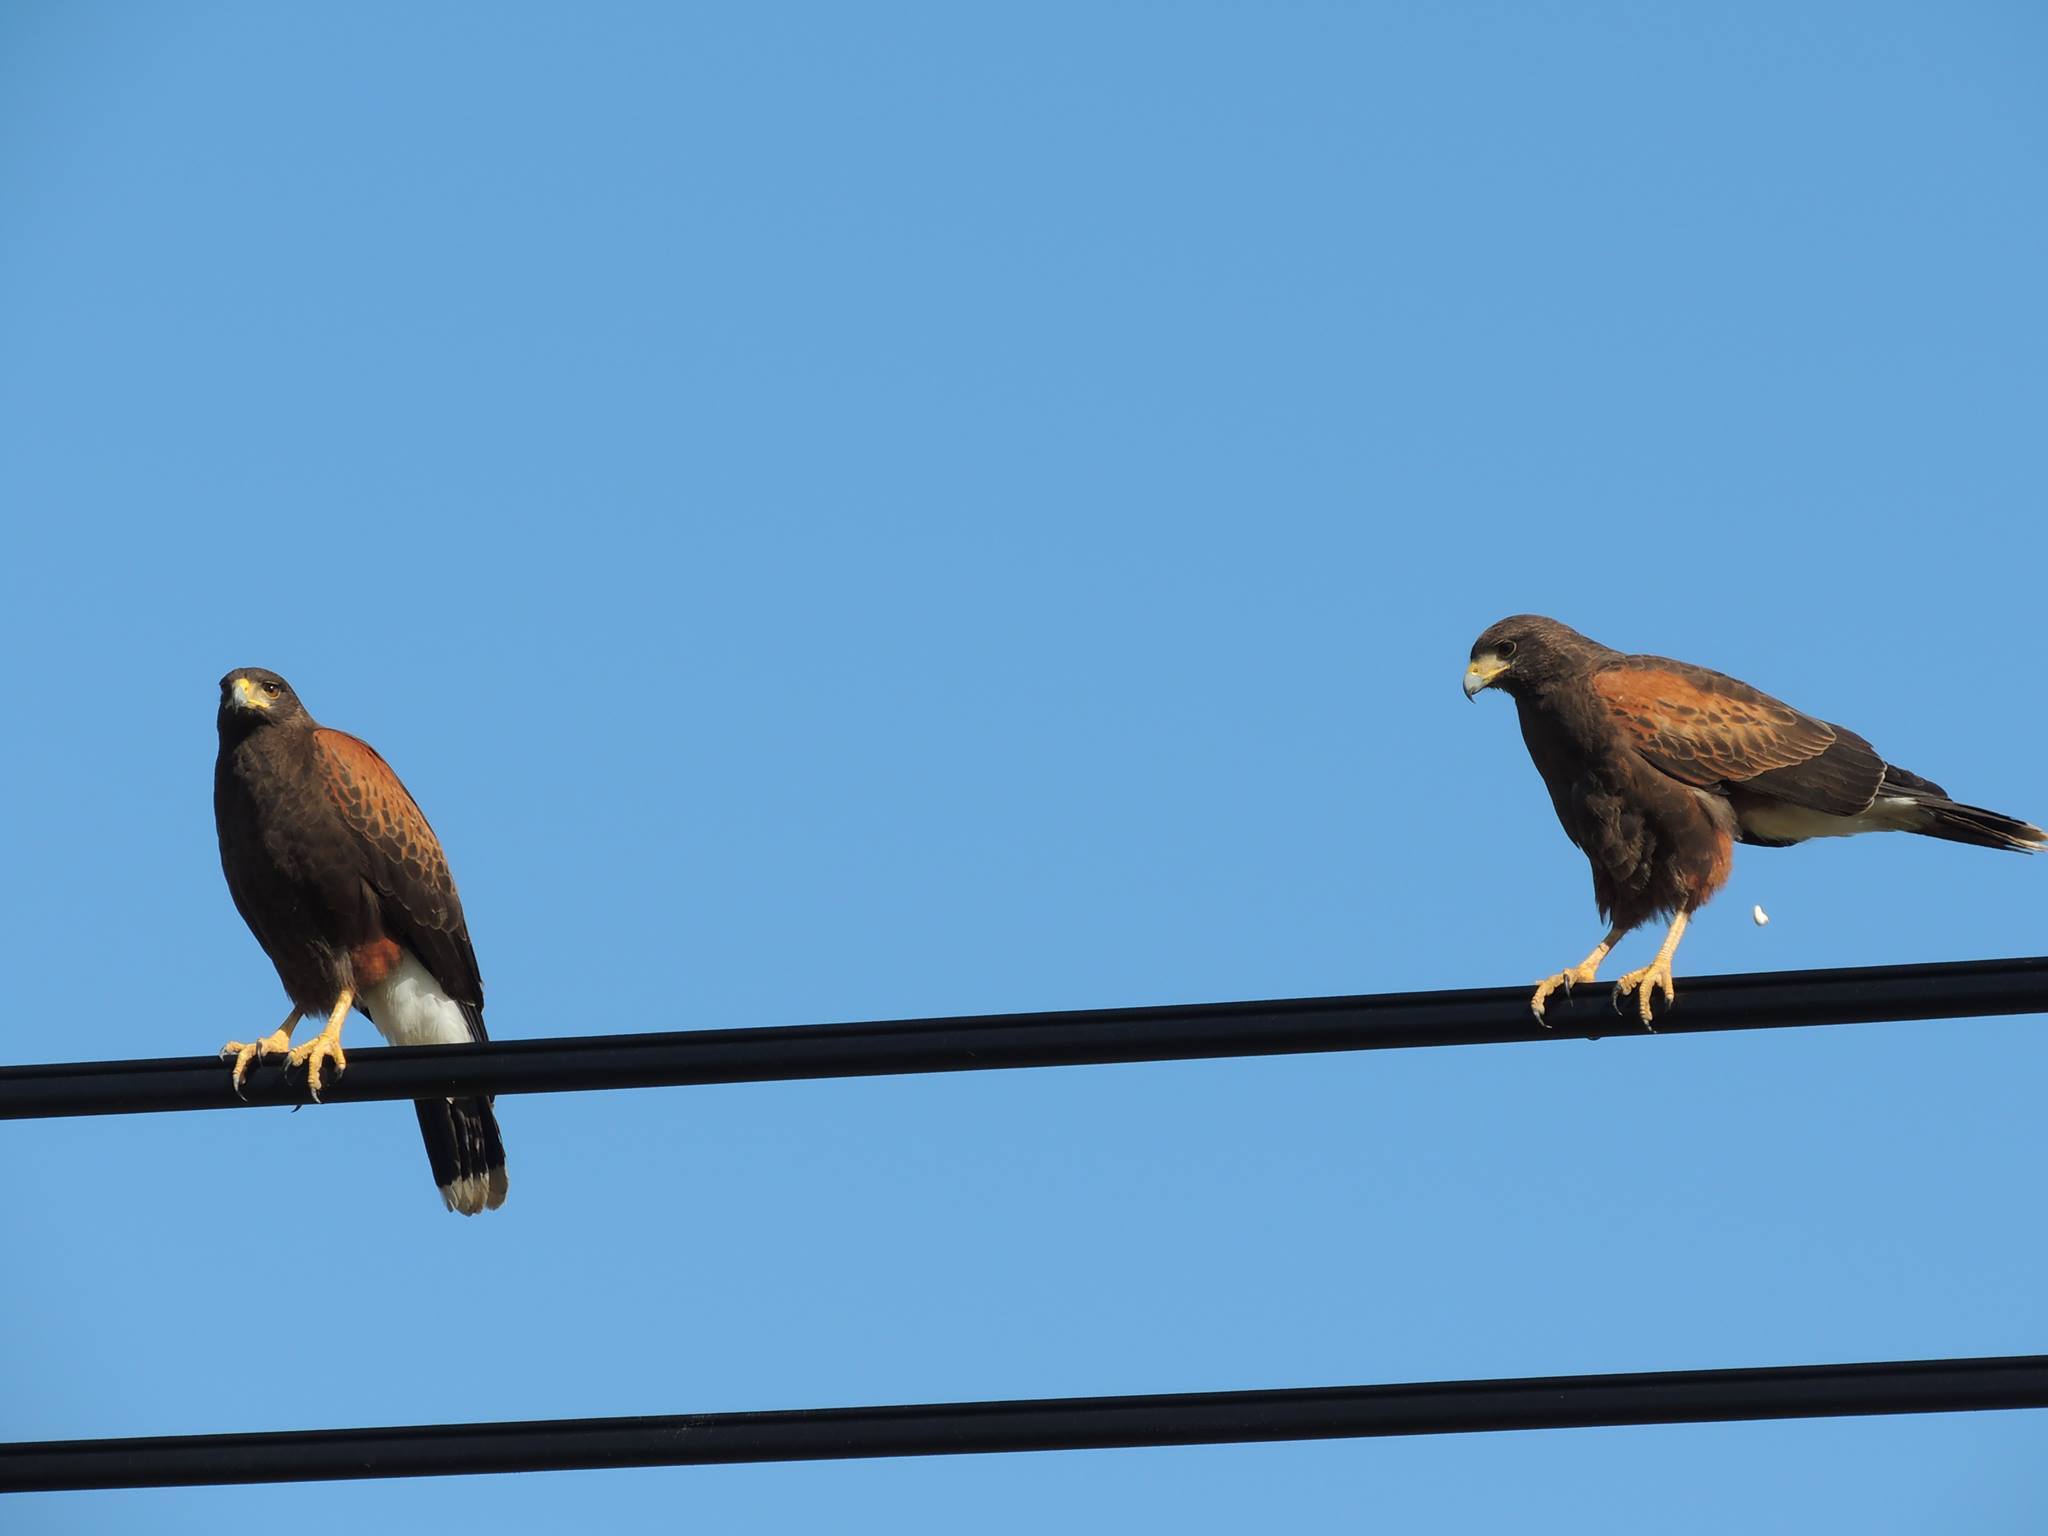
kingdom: Animalia
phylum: Chordata
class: Aves
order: Accipitriformes
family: Accipitridae
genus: Parabuteo
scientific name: Parabuteo unicinctus
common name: Harris's hawk
